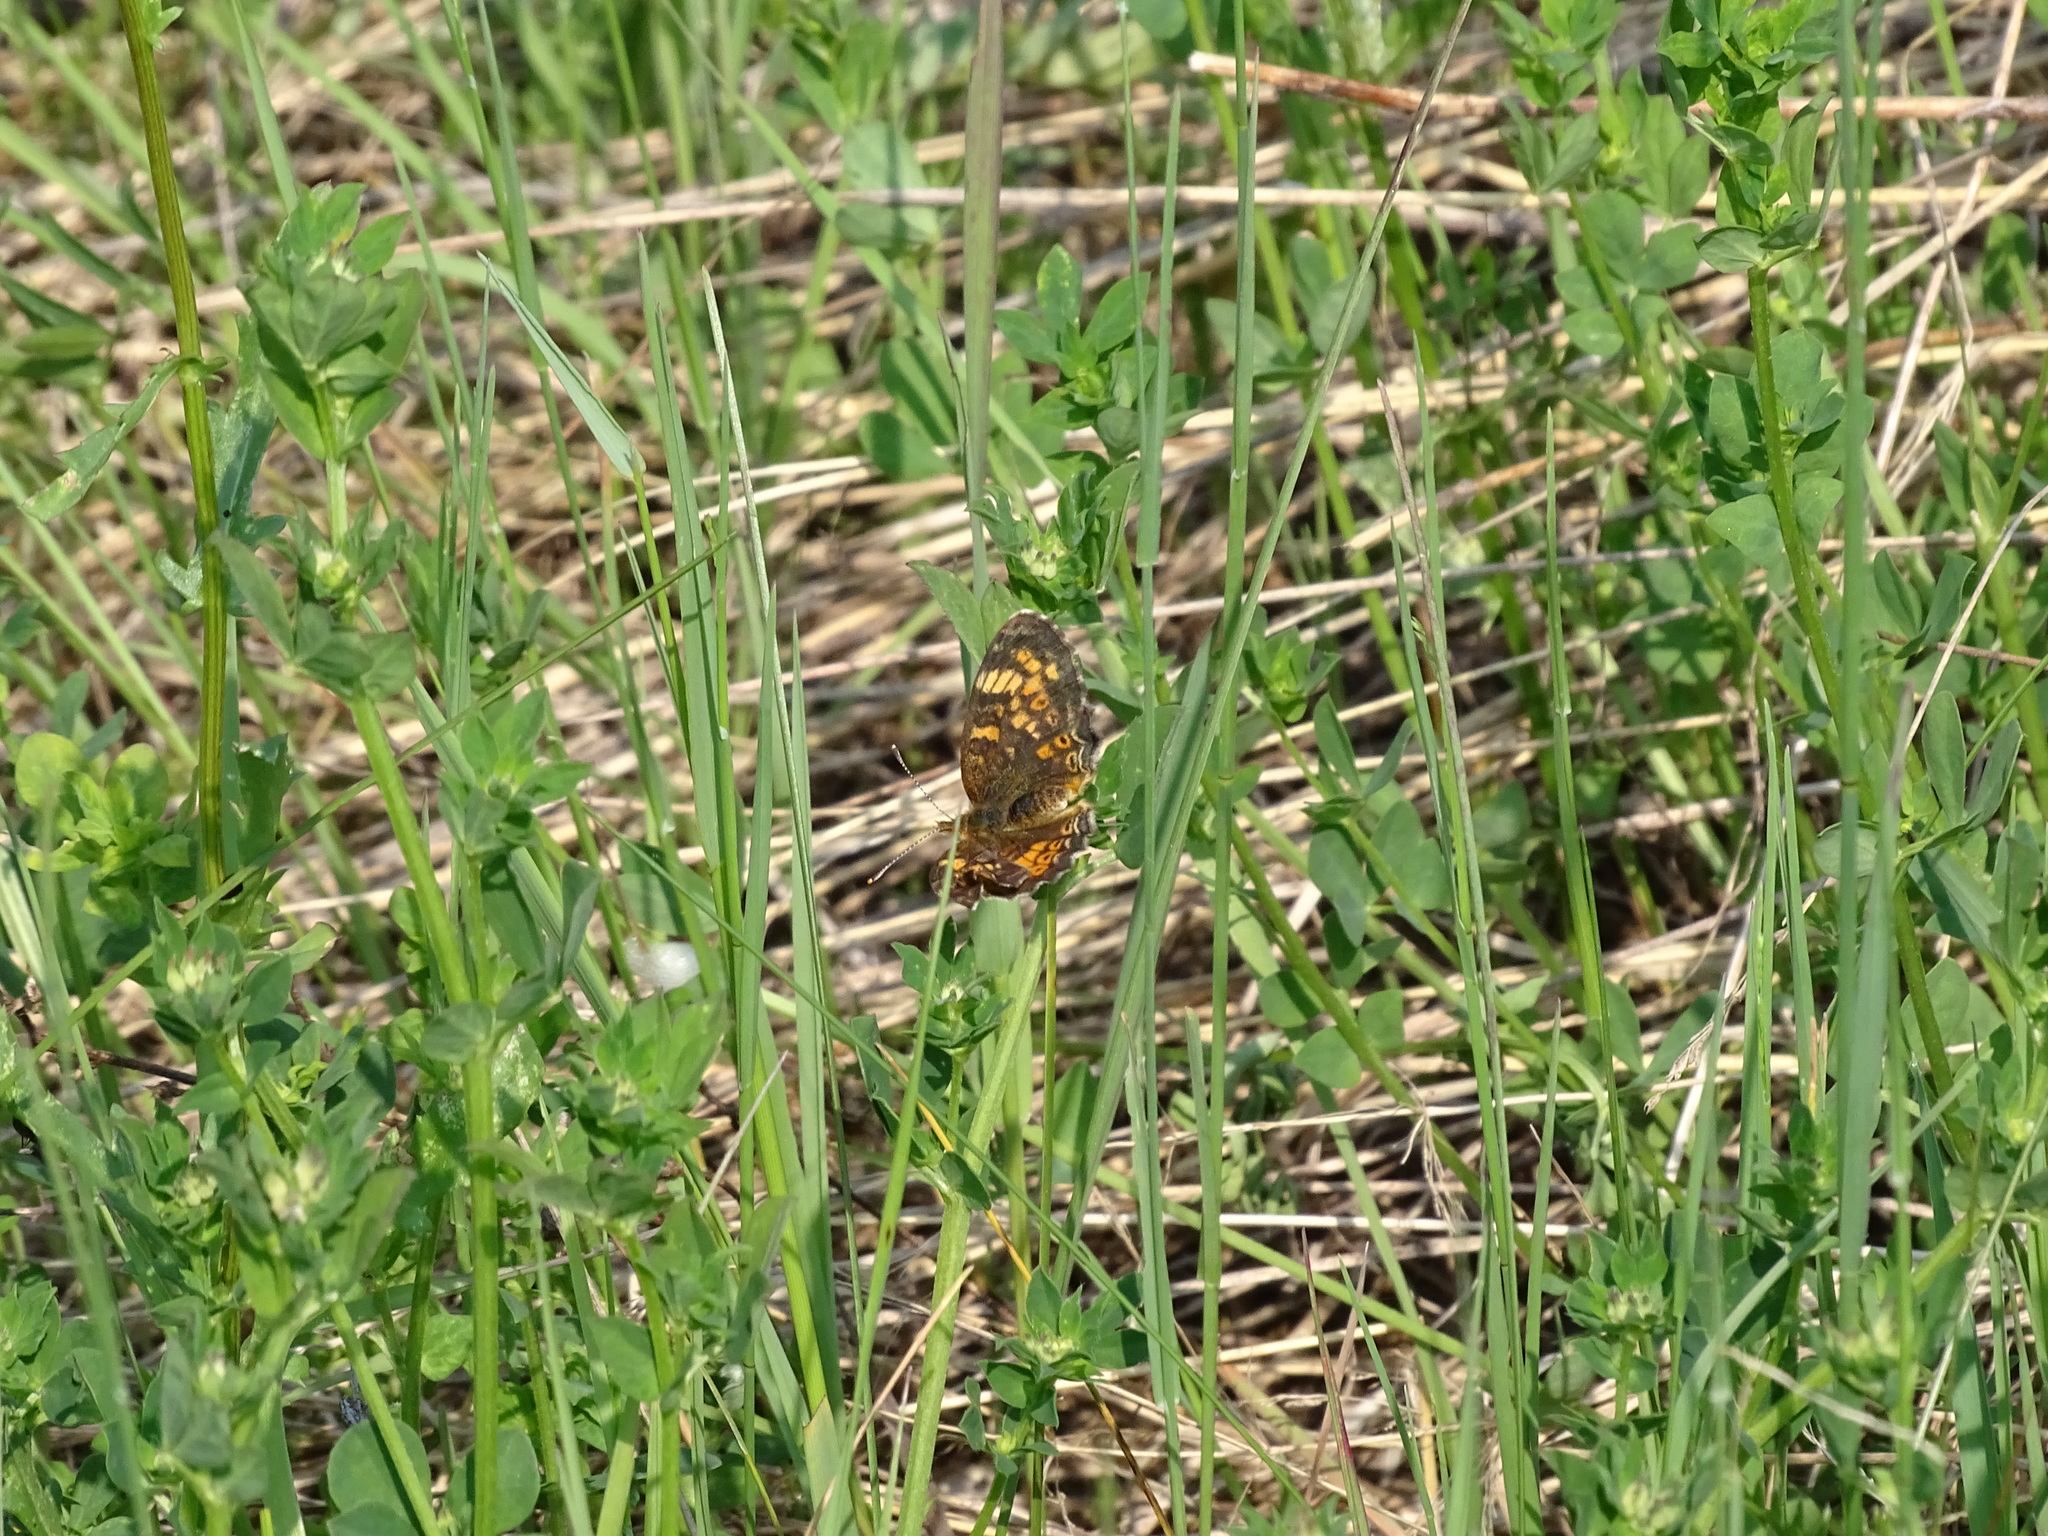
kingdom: Animalia
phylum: Arthropoda
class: Insecta
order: Lepidoptera
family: Nymphalidae
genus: Phyciodes
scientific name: Phyciodes tharos
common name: Pearl crescent
